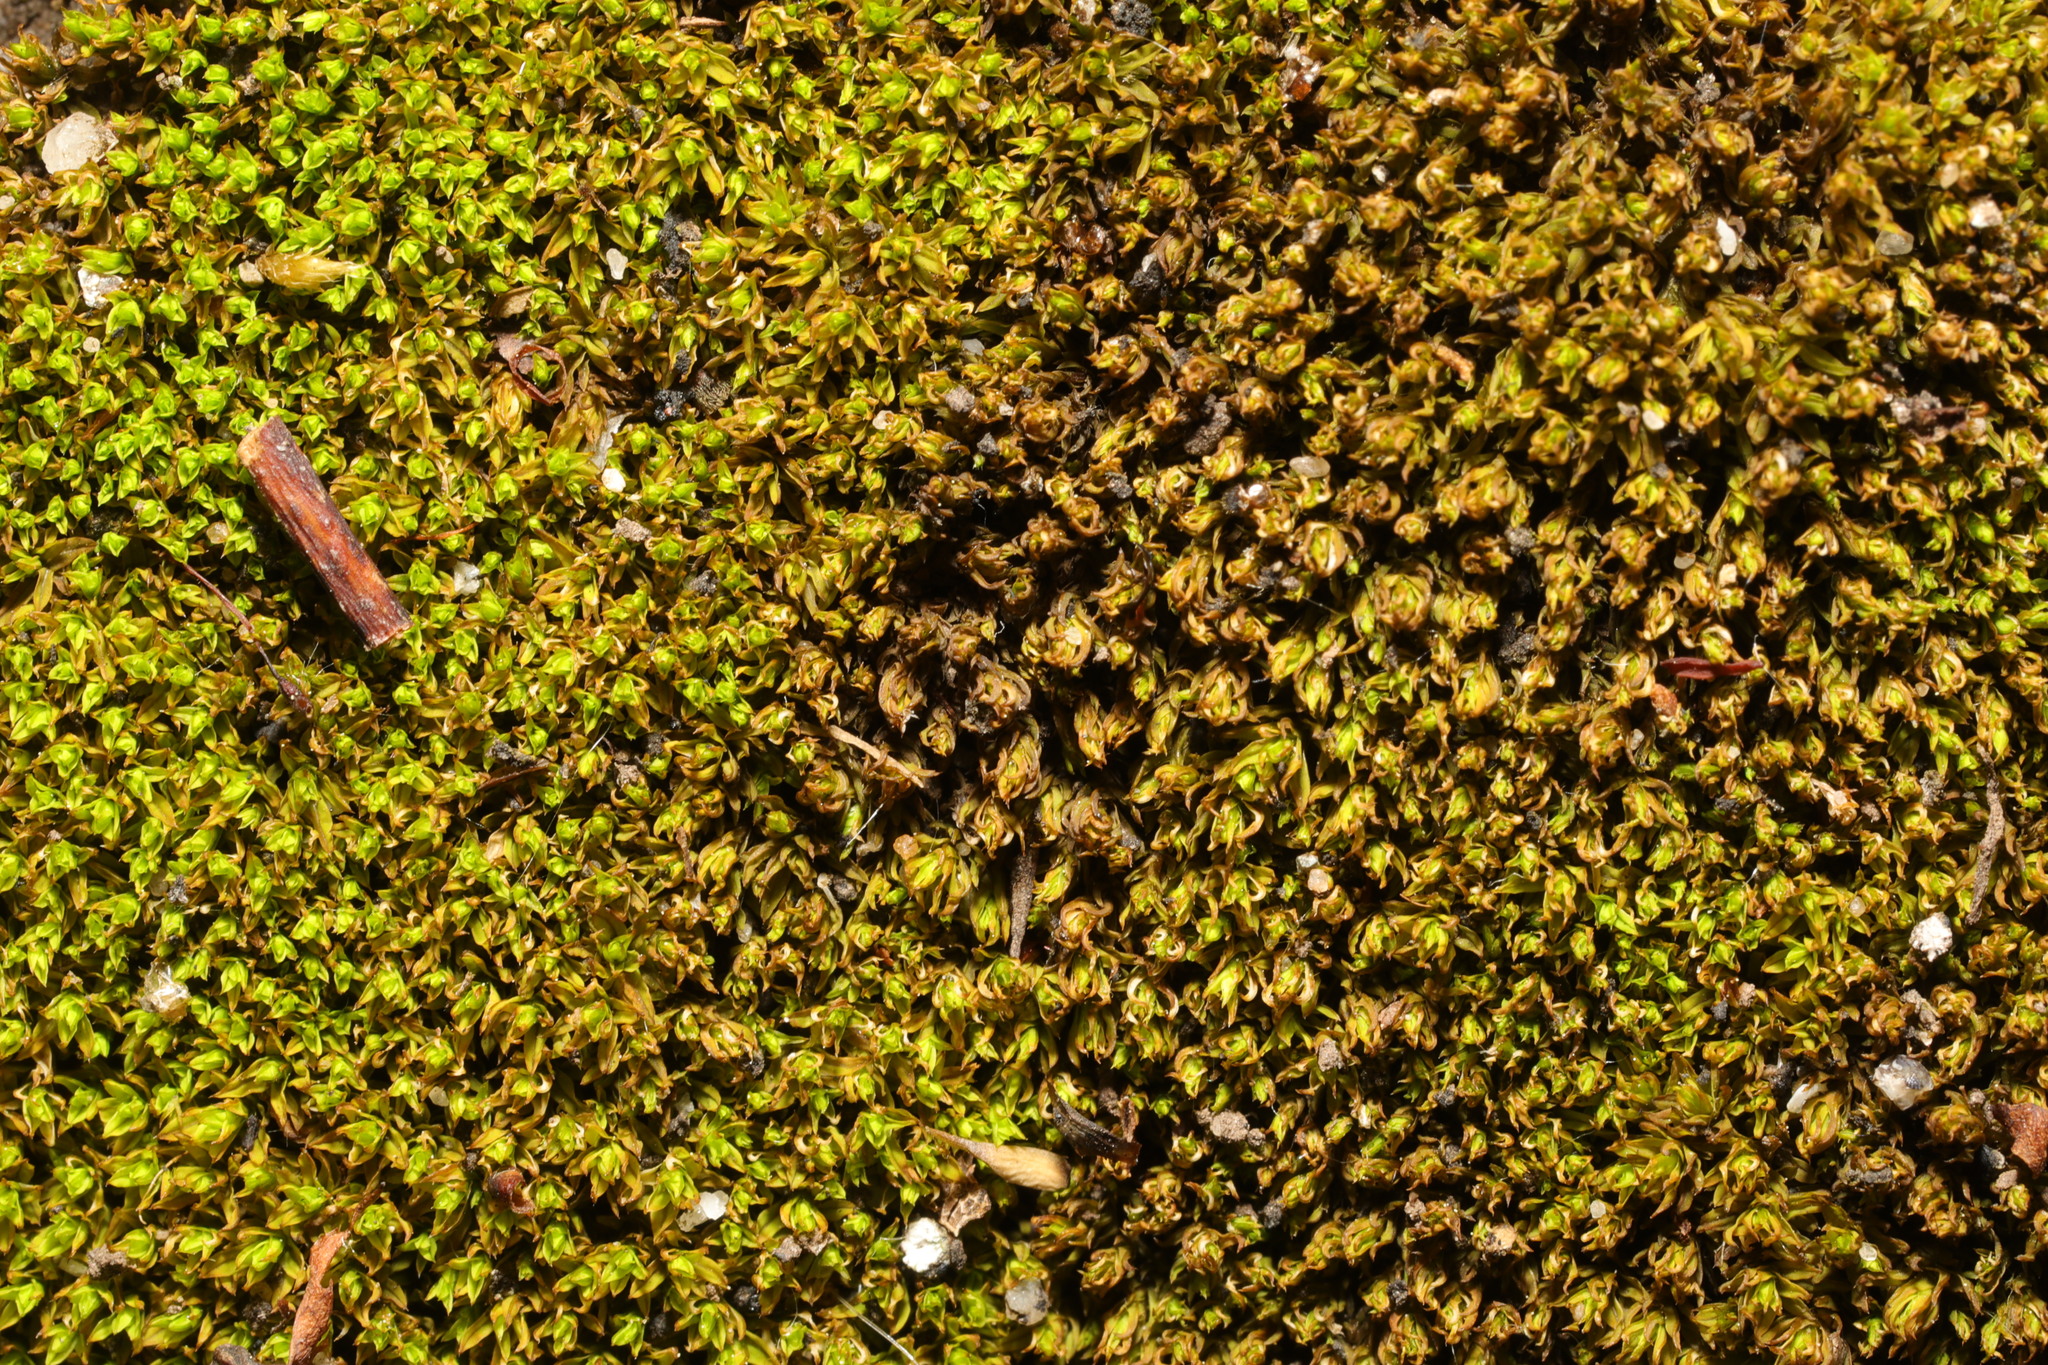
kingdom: Plantae
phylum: Bryophyta
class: Bryopsida
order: Pottiales
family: Pottiaceae
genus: Barbula
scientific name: Barbula unguiculata
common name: Prickly beard moss
